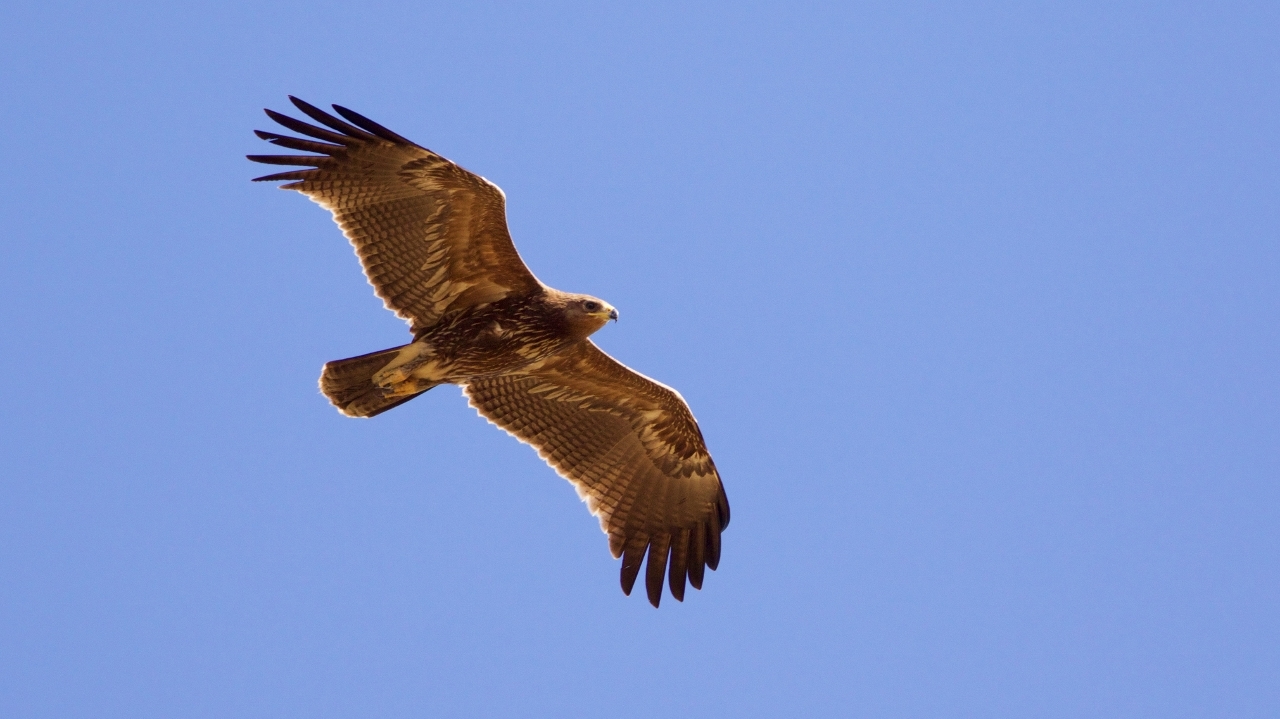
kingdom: Animalia
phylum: Chordata
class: Aves
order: Accipitriformes
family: Accipitridae
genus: Aquila
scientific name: Aquila pomarina
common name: Lesser spotted eagle
